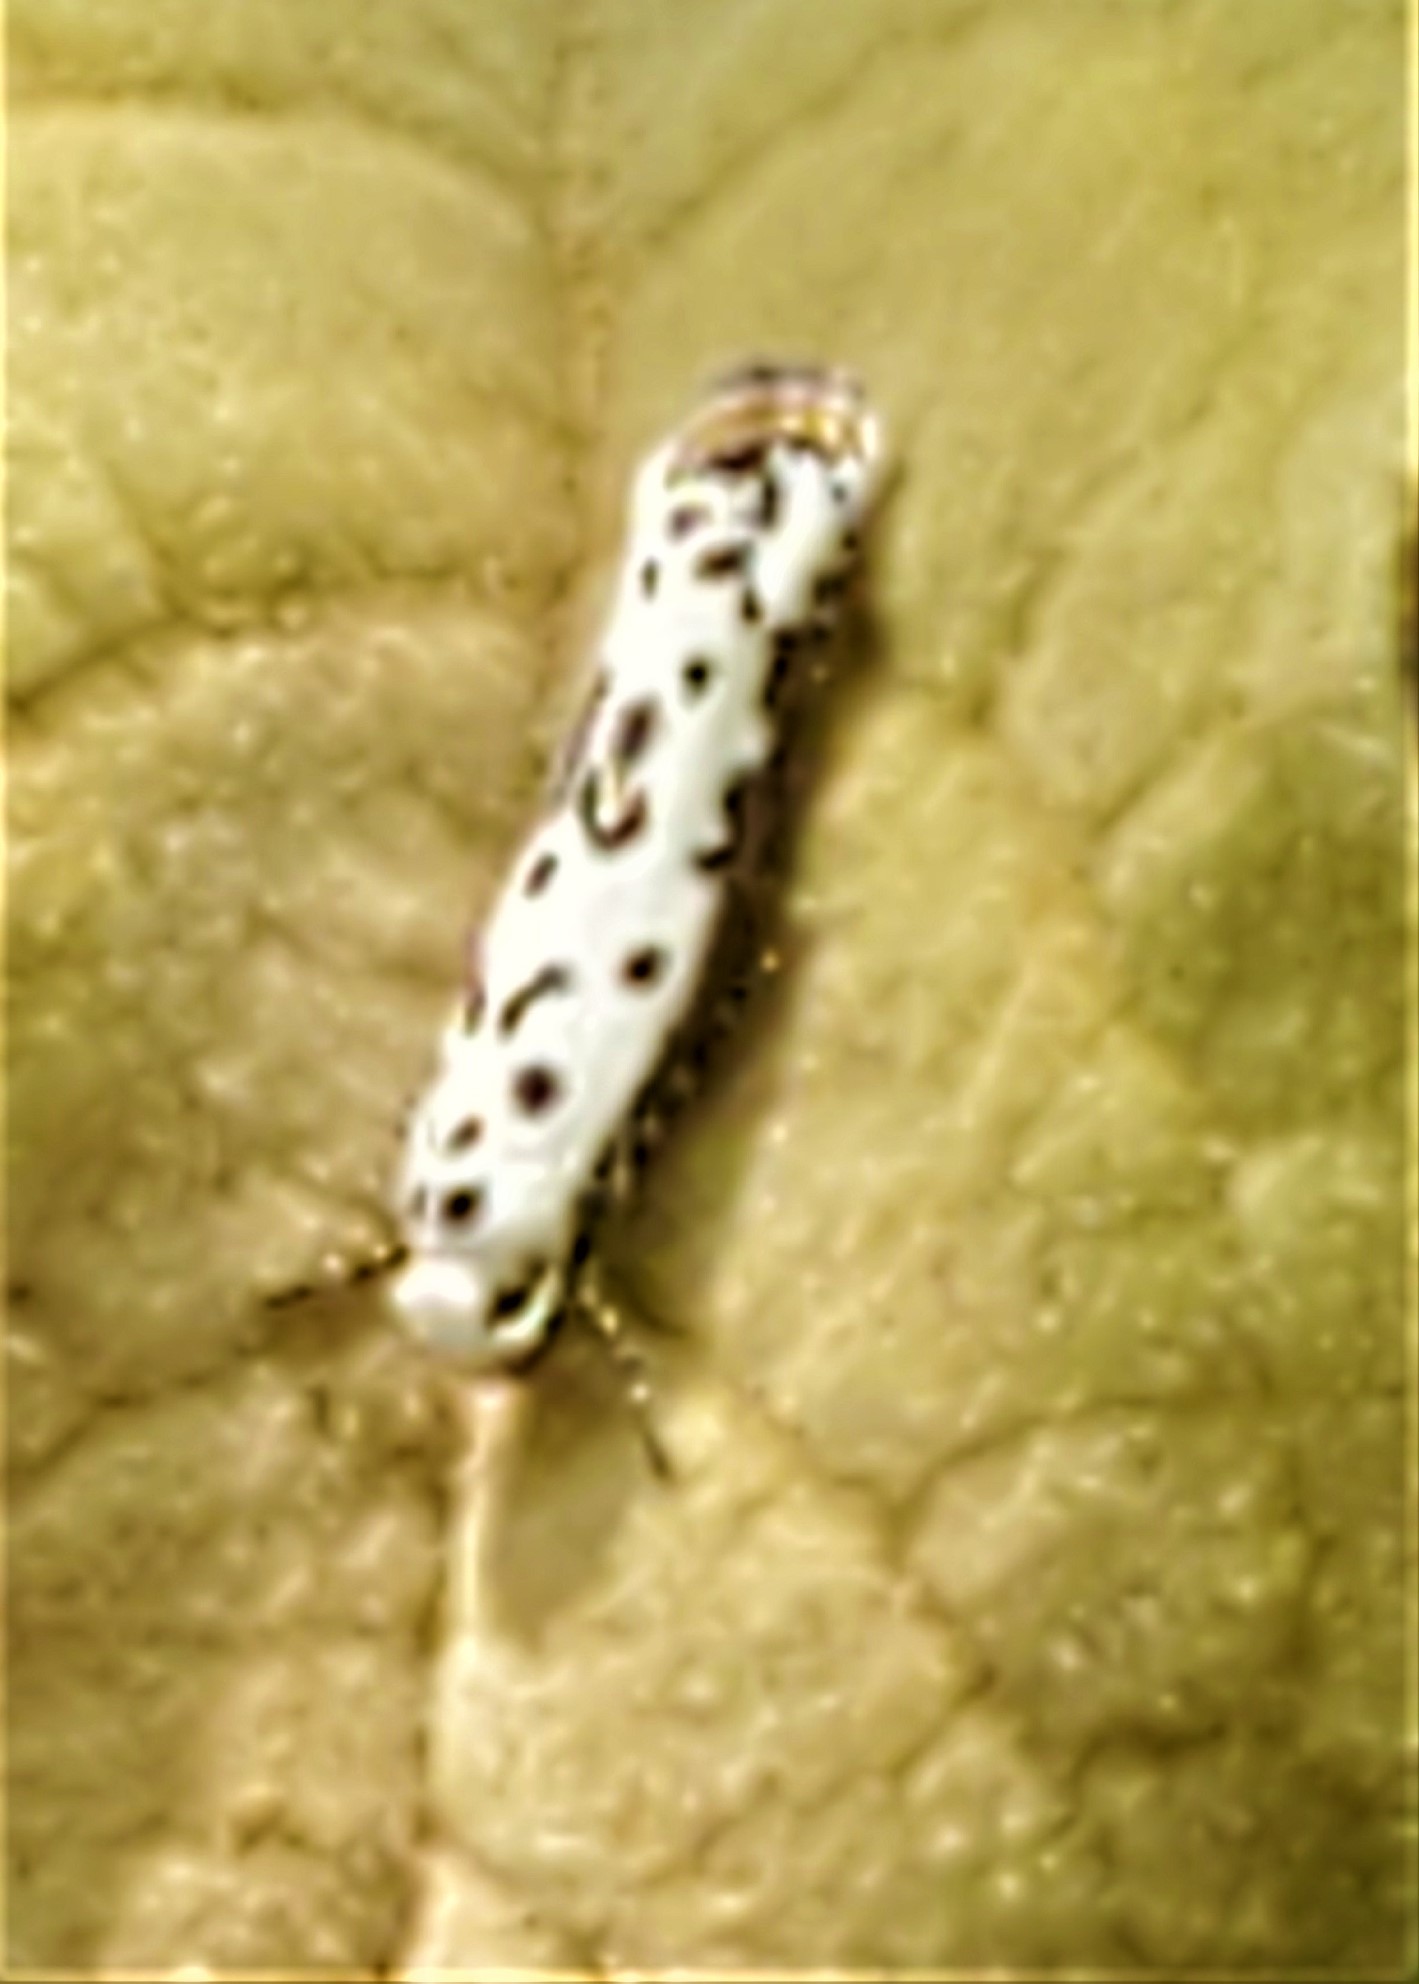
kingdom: Animalia
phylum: Arthropoda
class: Insecta
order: Lepidoptera
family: Ethmiidae
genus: Ethmia
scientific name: Ethmia bittenella
